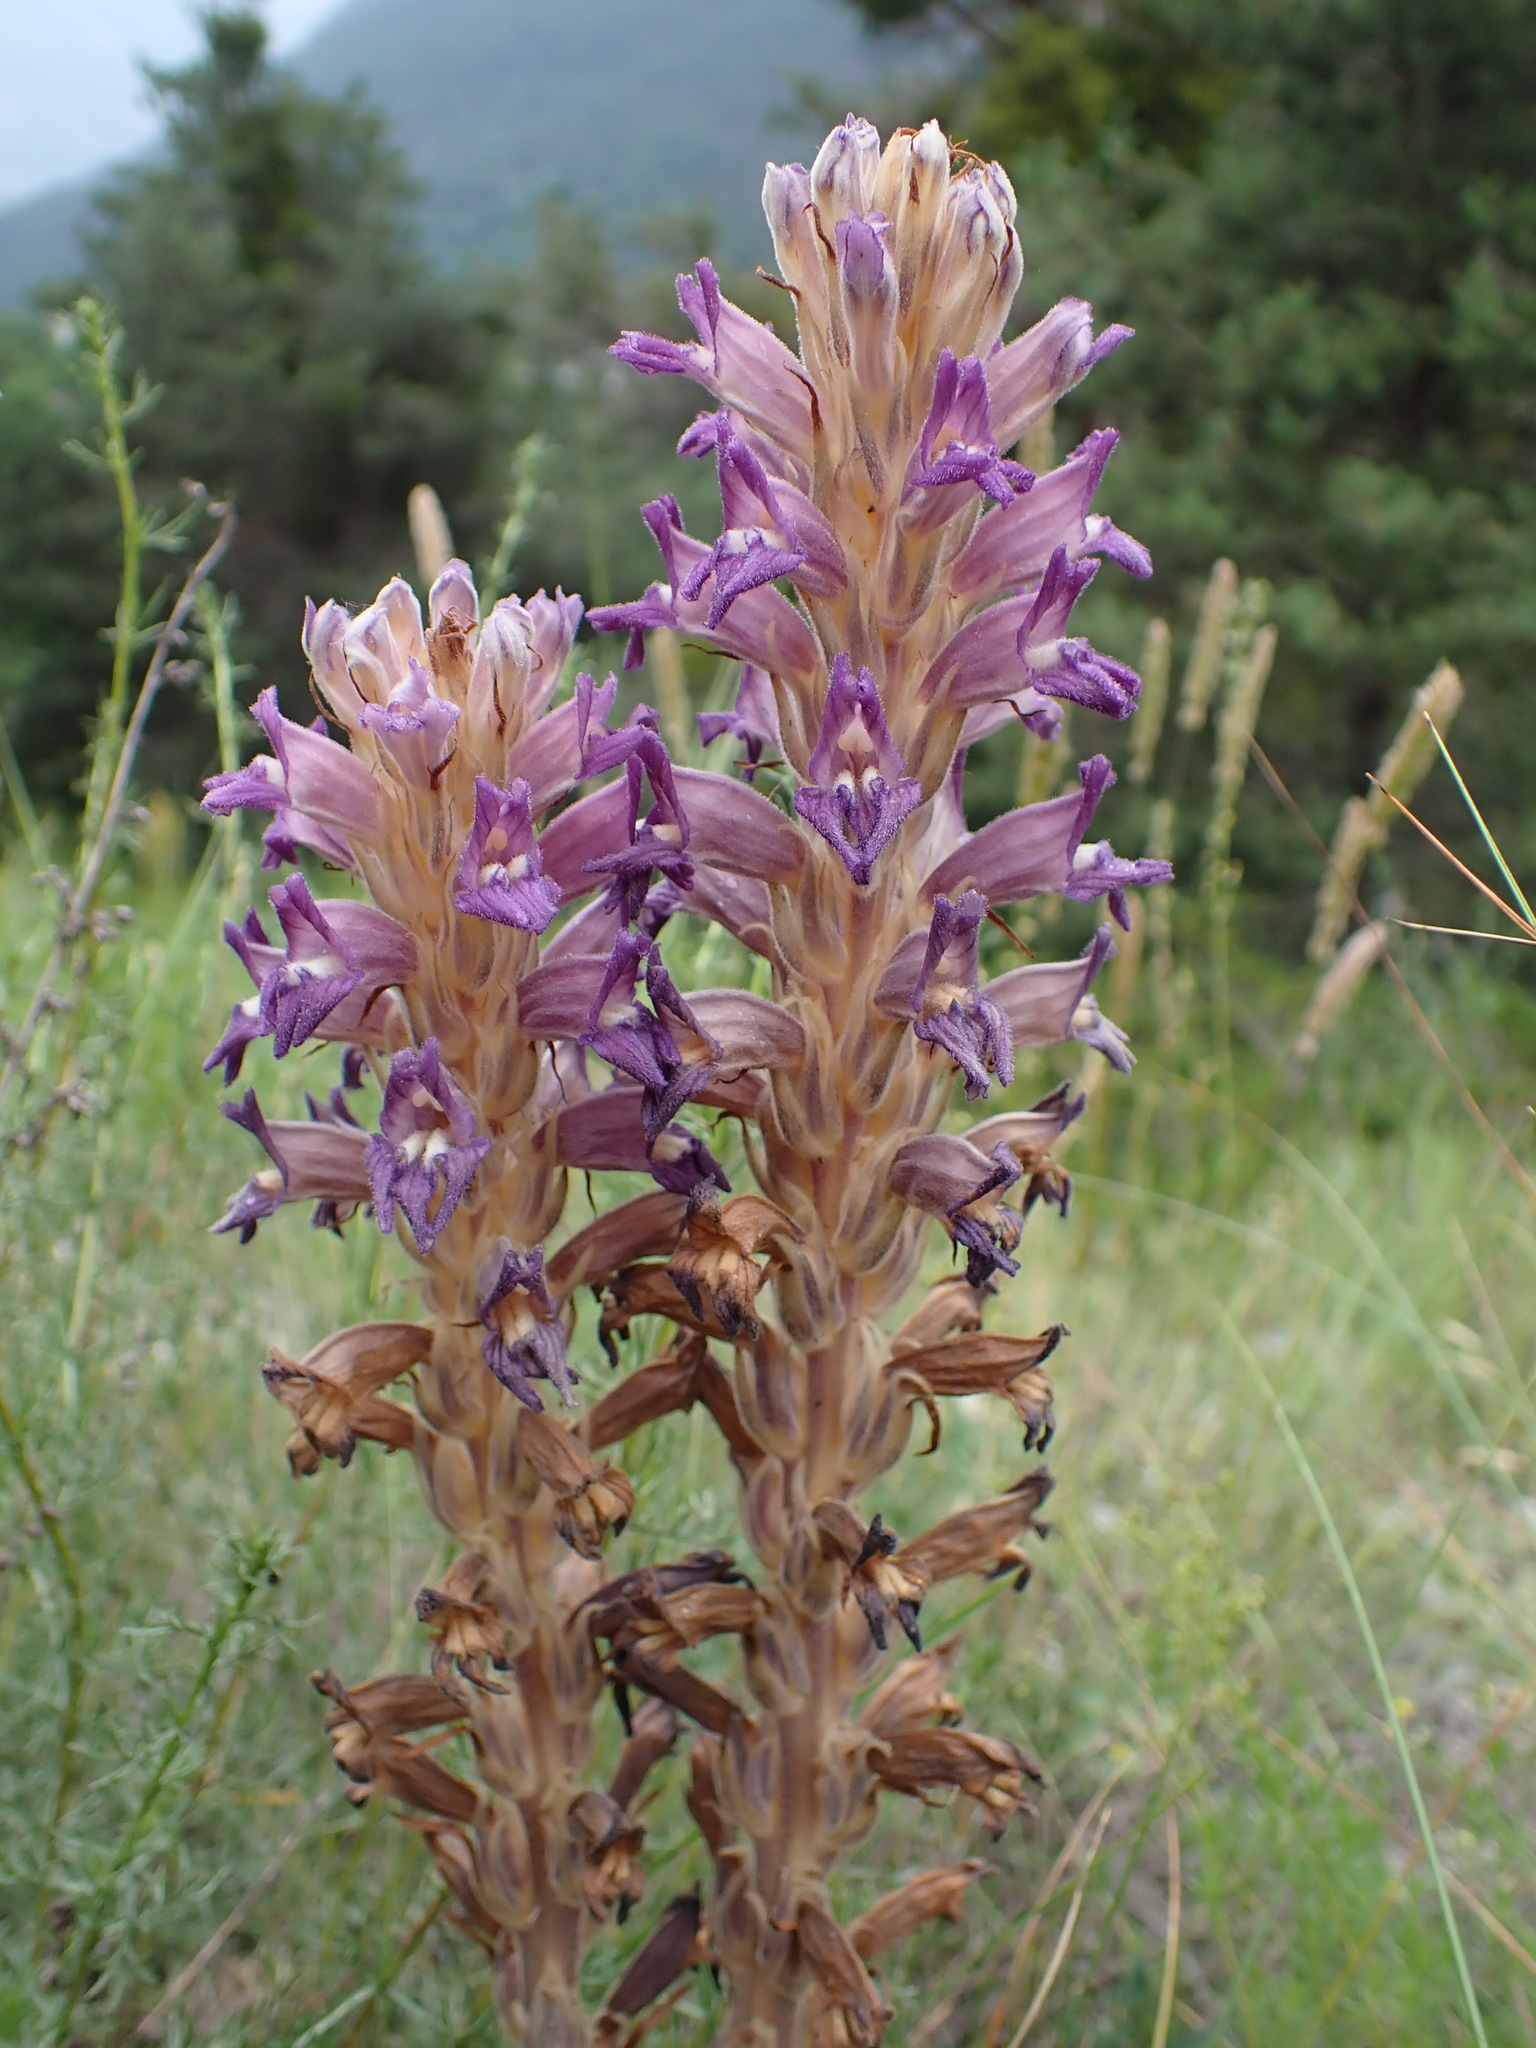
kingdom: Plantae
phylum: Tracheophyta
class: Magnoliopsida
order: Lamiales
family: Orobanchaceae
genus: Phelipanche
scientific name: Phelipanche arenaria
